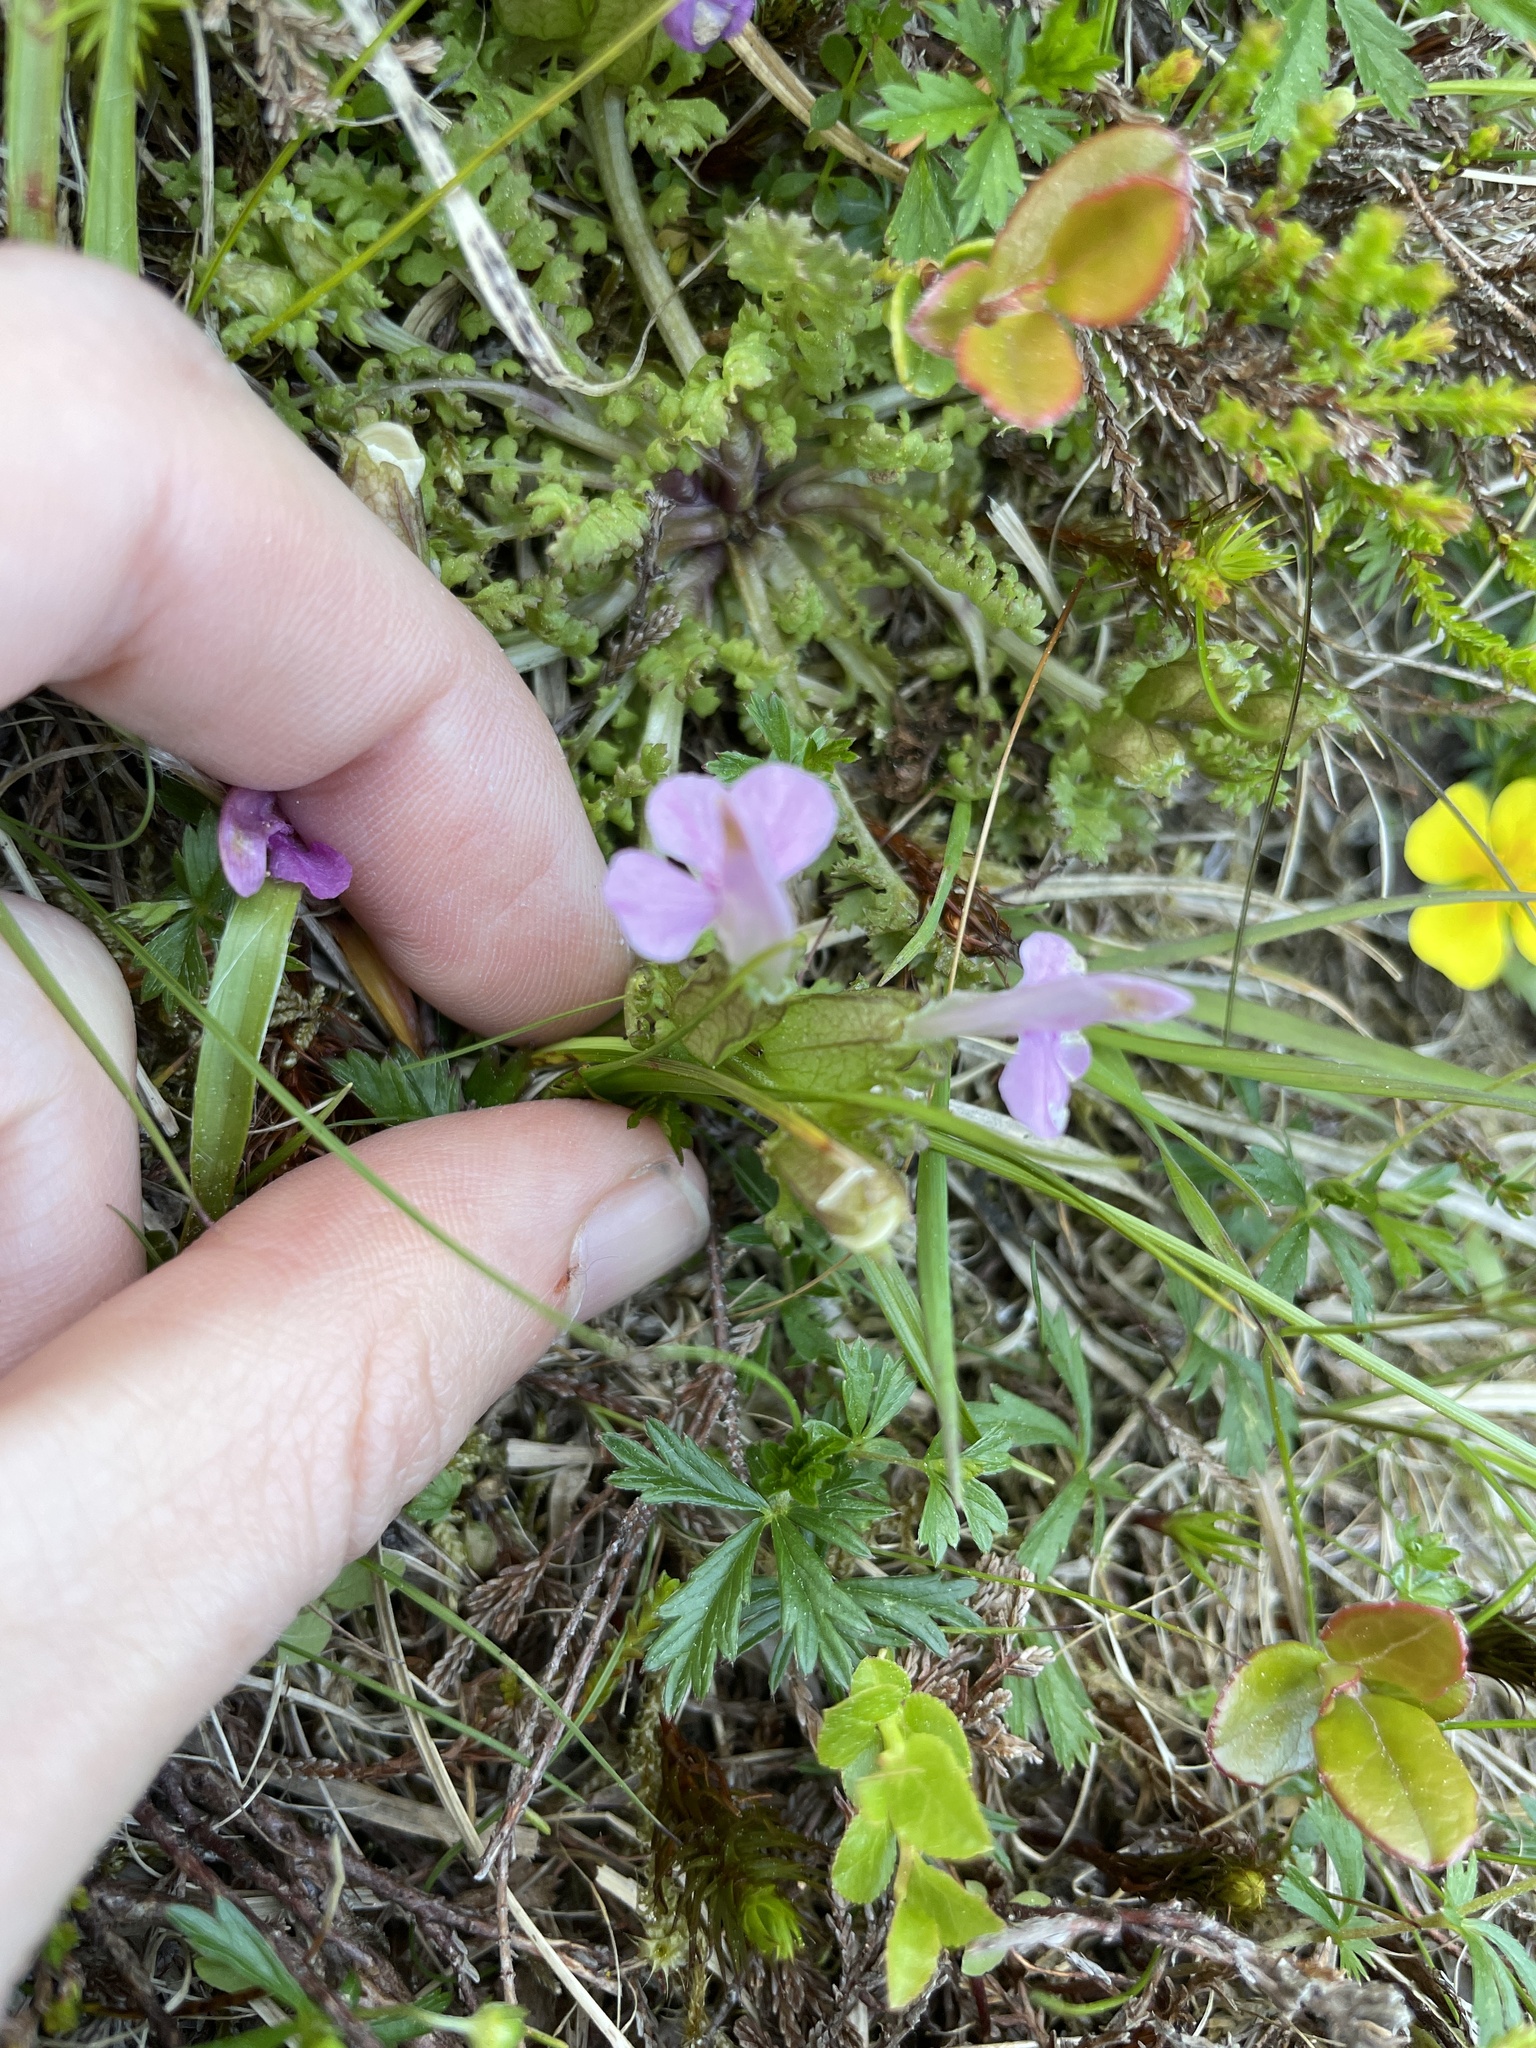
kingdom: Plantae
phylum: Tracheophyta
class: Magnoliopsida
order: Lamiales
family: Orobanchaceae
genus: Pedicularis
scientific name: Pedicularis sylvatica
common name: Lousewort
